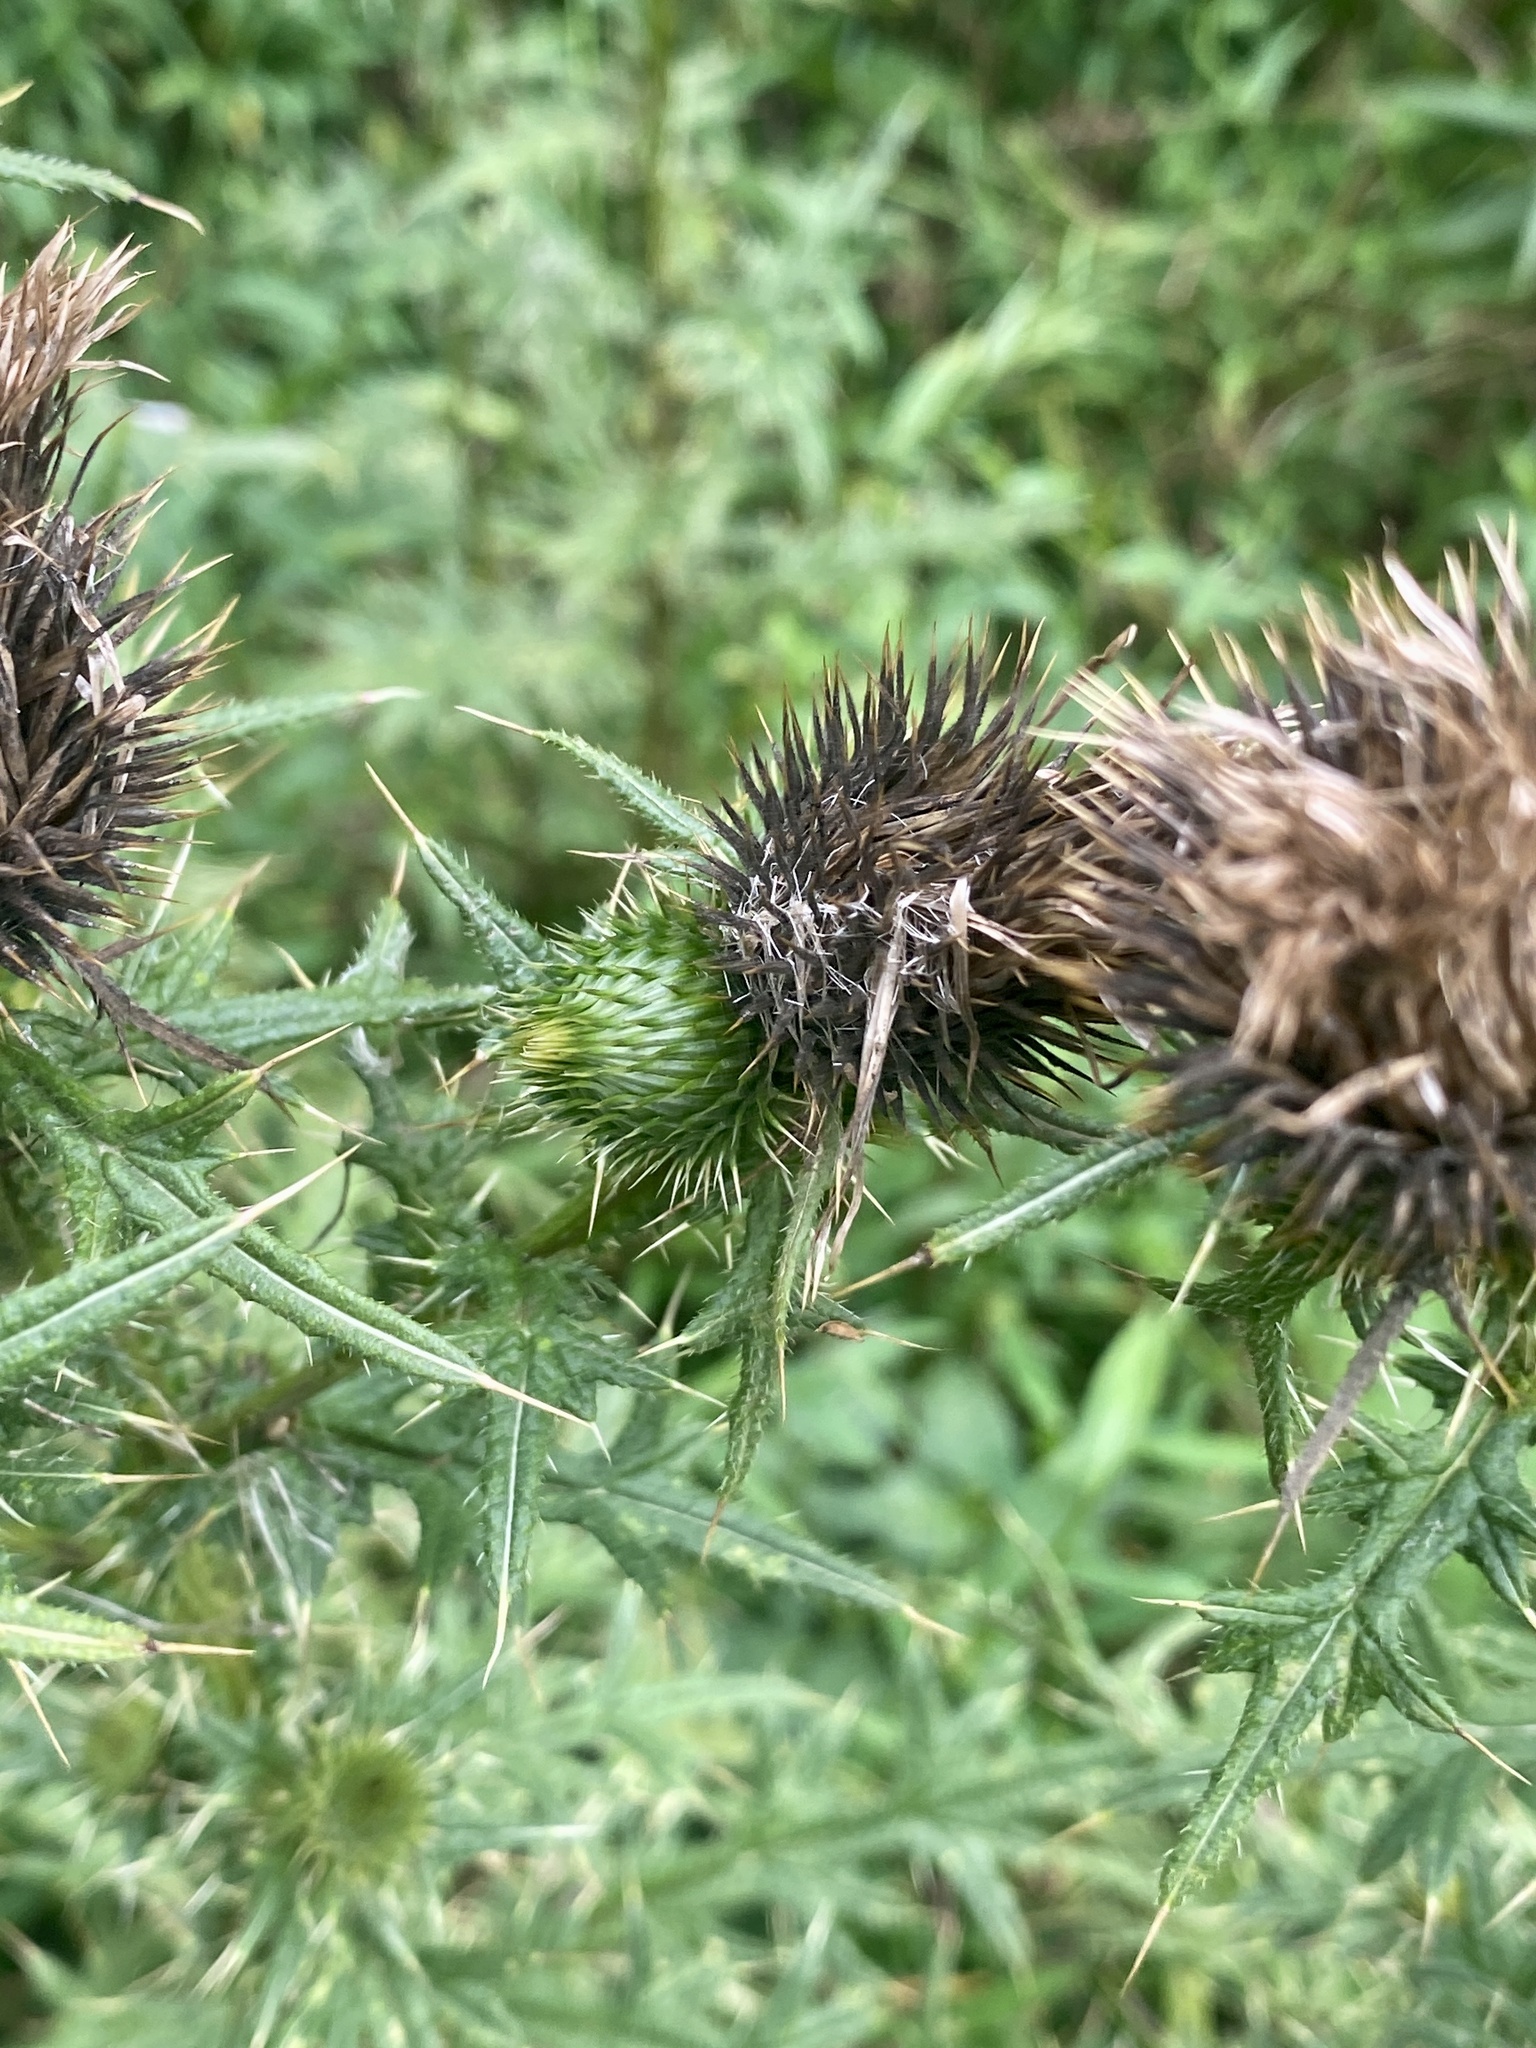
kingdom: Plantae
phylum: Tracheophyta
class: Magnoliopsida
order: Asterales
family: Asteraceae
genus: Cirsium
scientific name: Cirsium vulgare
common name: Bull thistle
